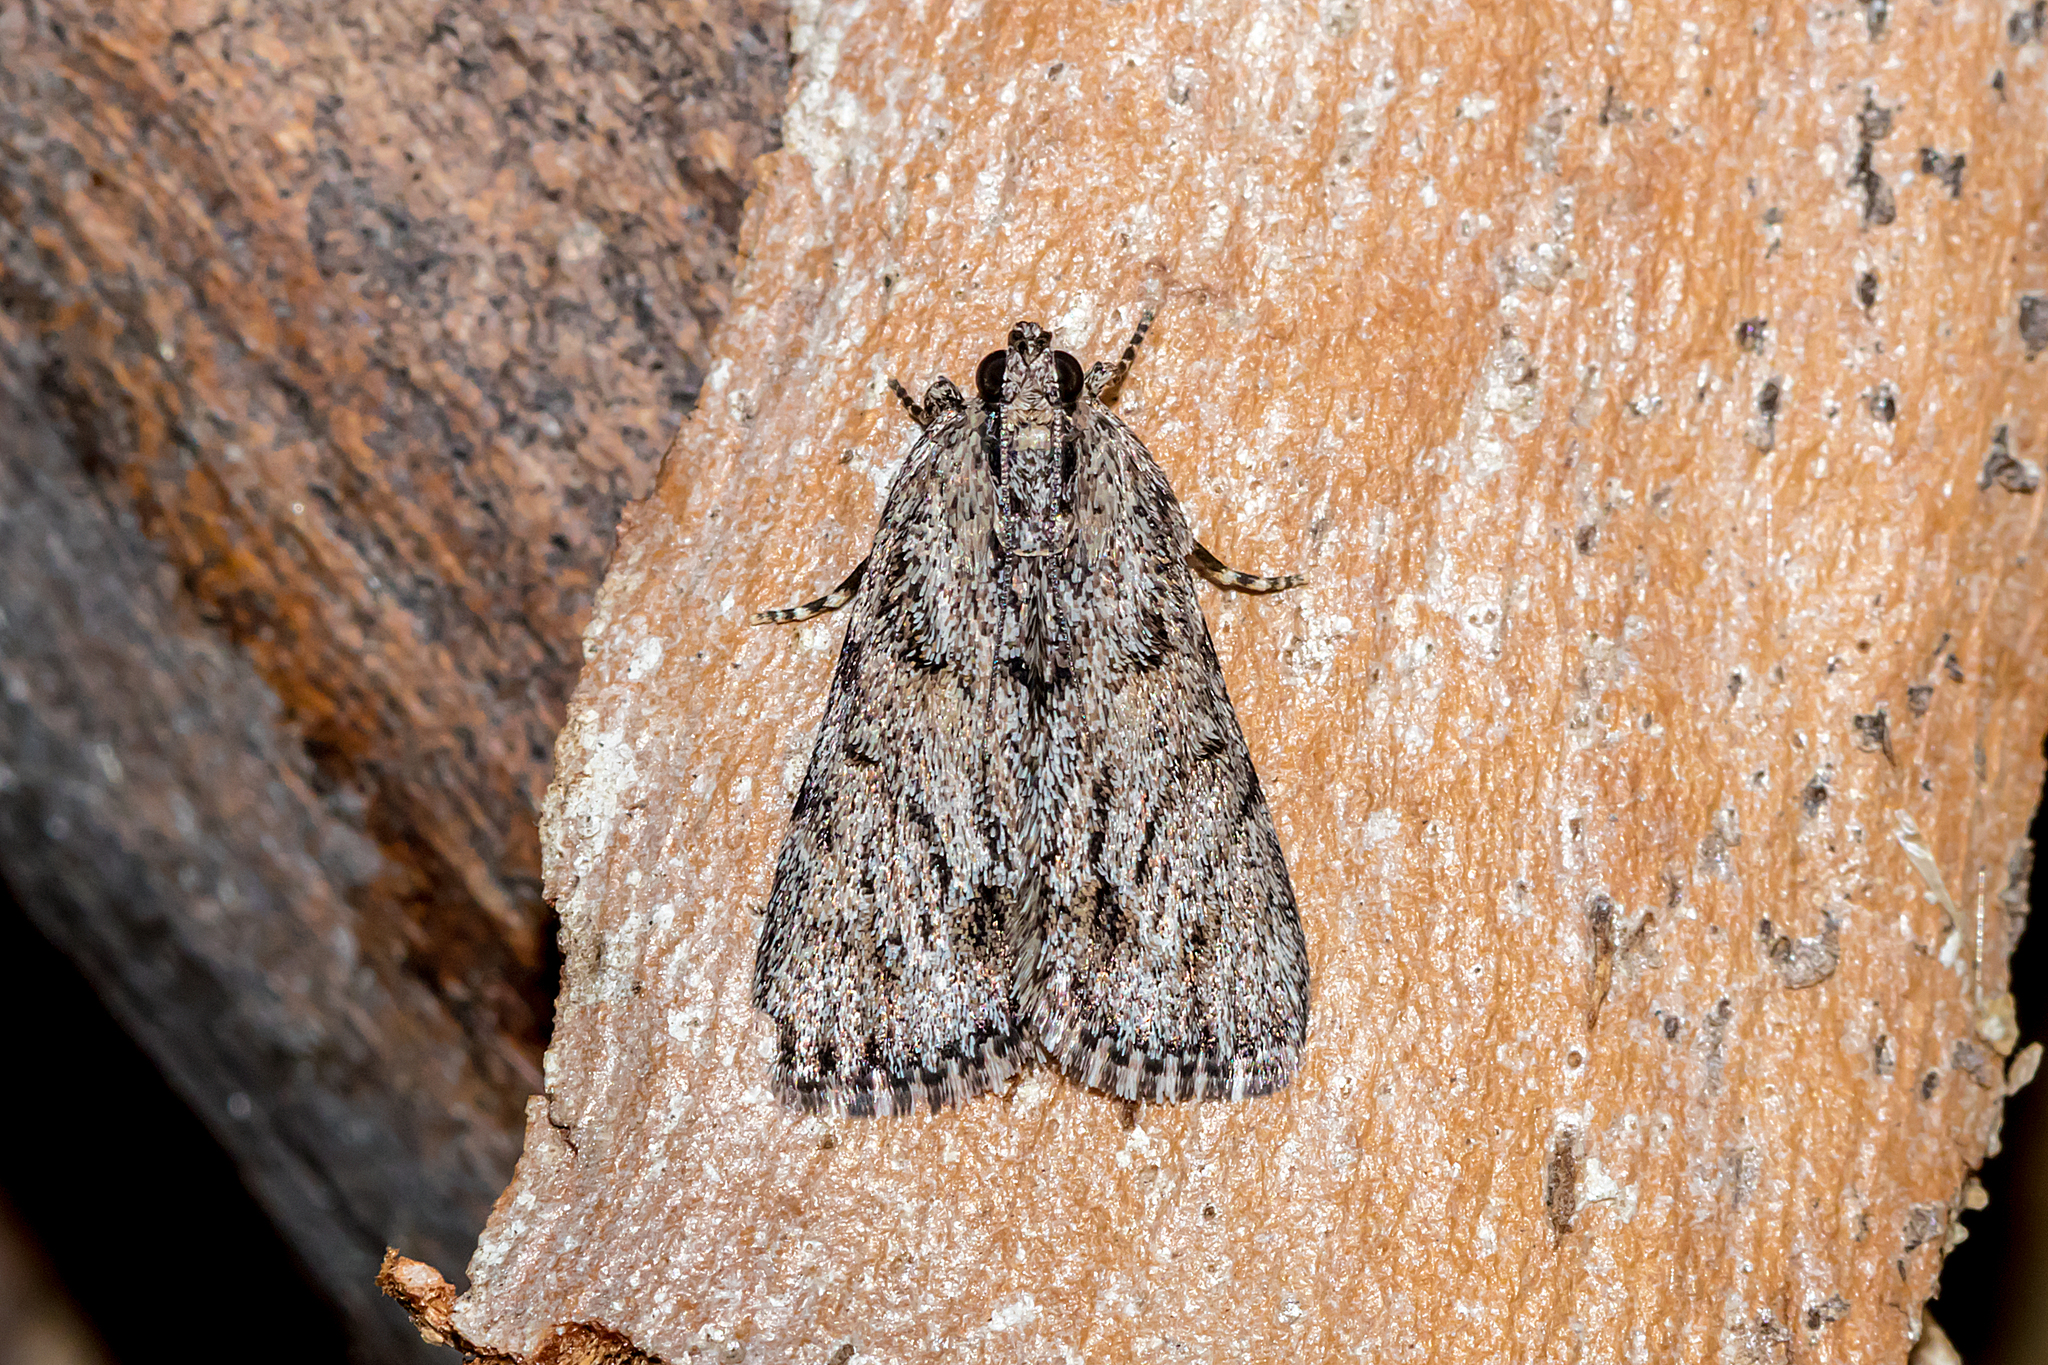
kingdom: Animalia
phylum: Arthropoda
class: Insecta
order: Lepidoptera
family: Pyralidae
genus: Spectrotrota
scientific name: Spectrotrota fimbrialis
